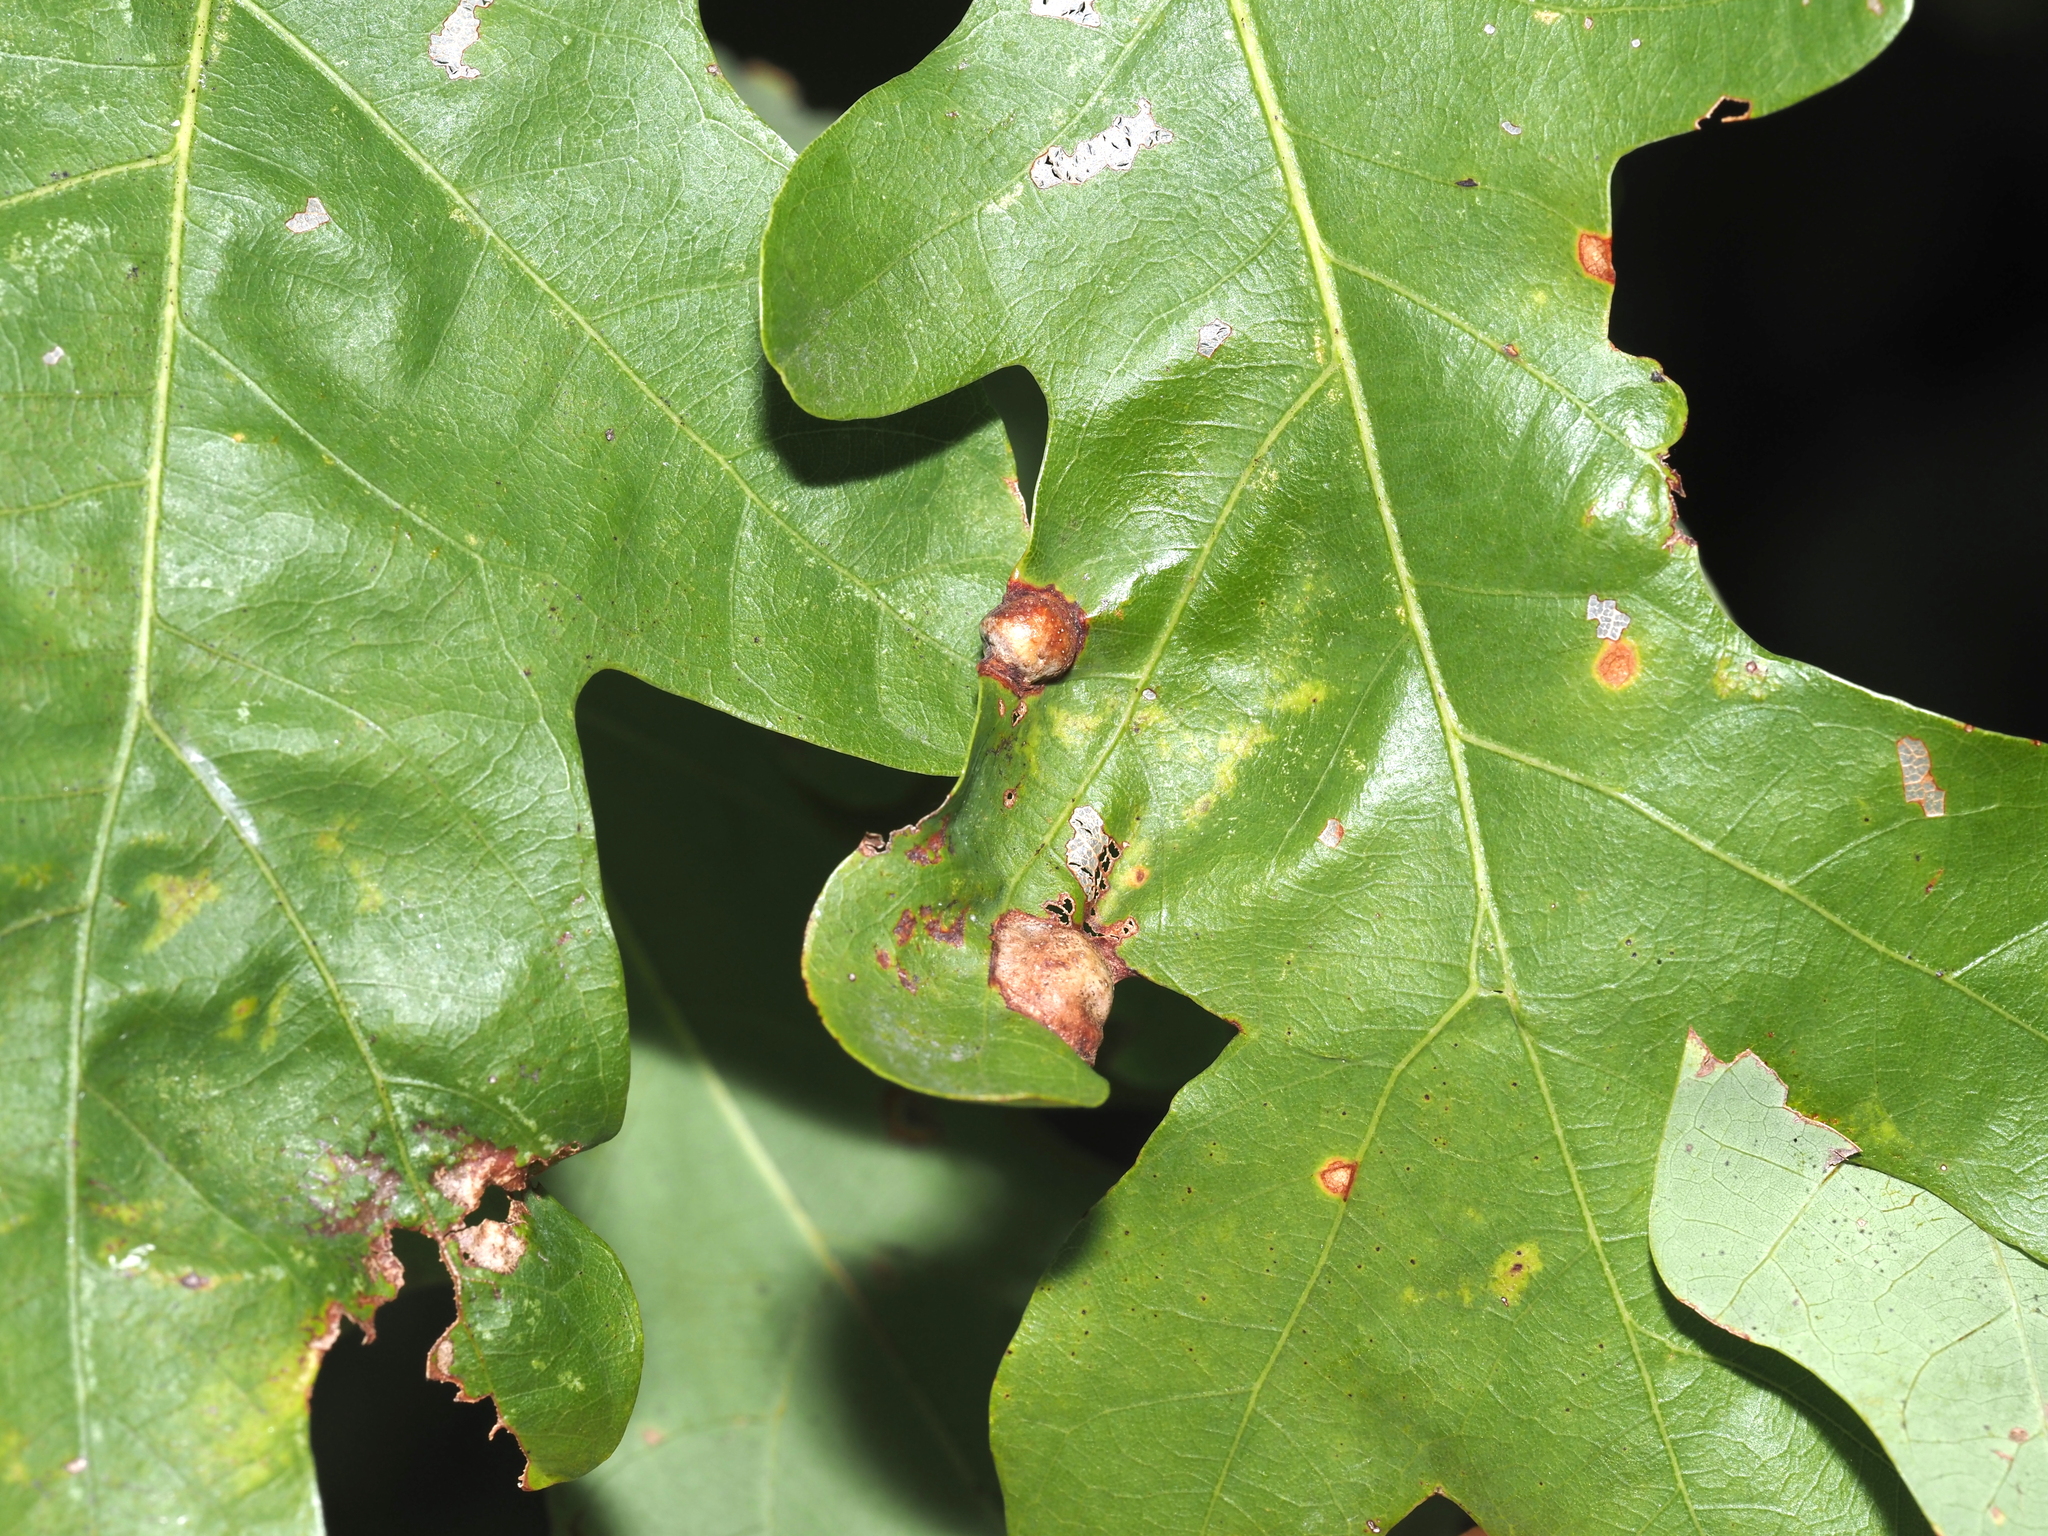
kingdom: Animalia
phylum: Arthropoda
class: Insecta
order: Hymenoptera
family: Cynipidae
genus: Callirhytis
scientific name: Callirhytis
